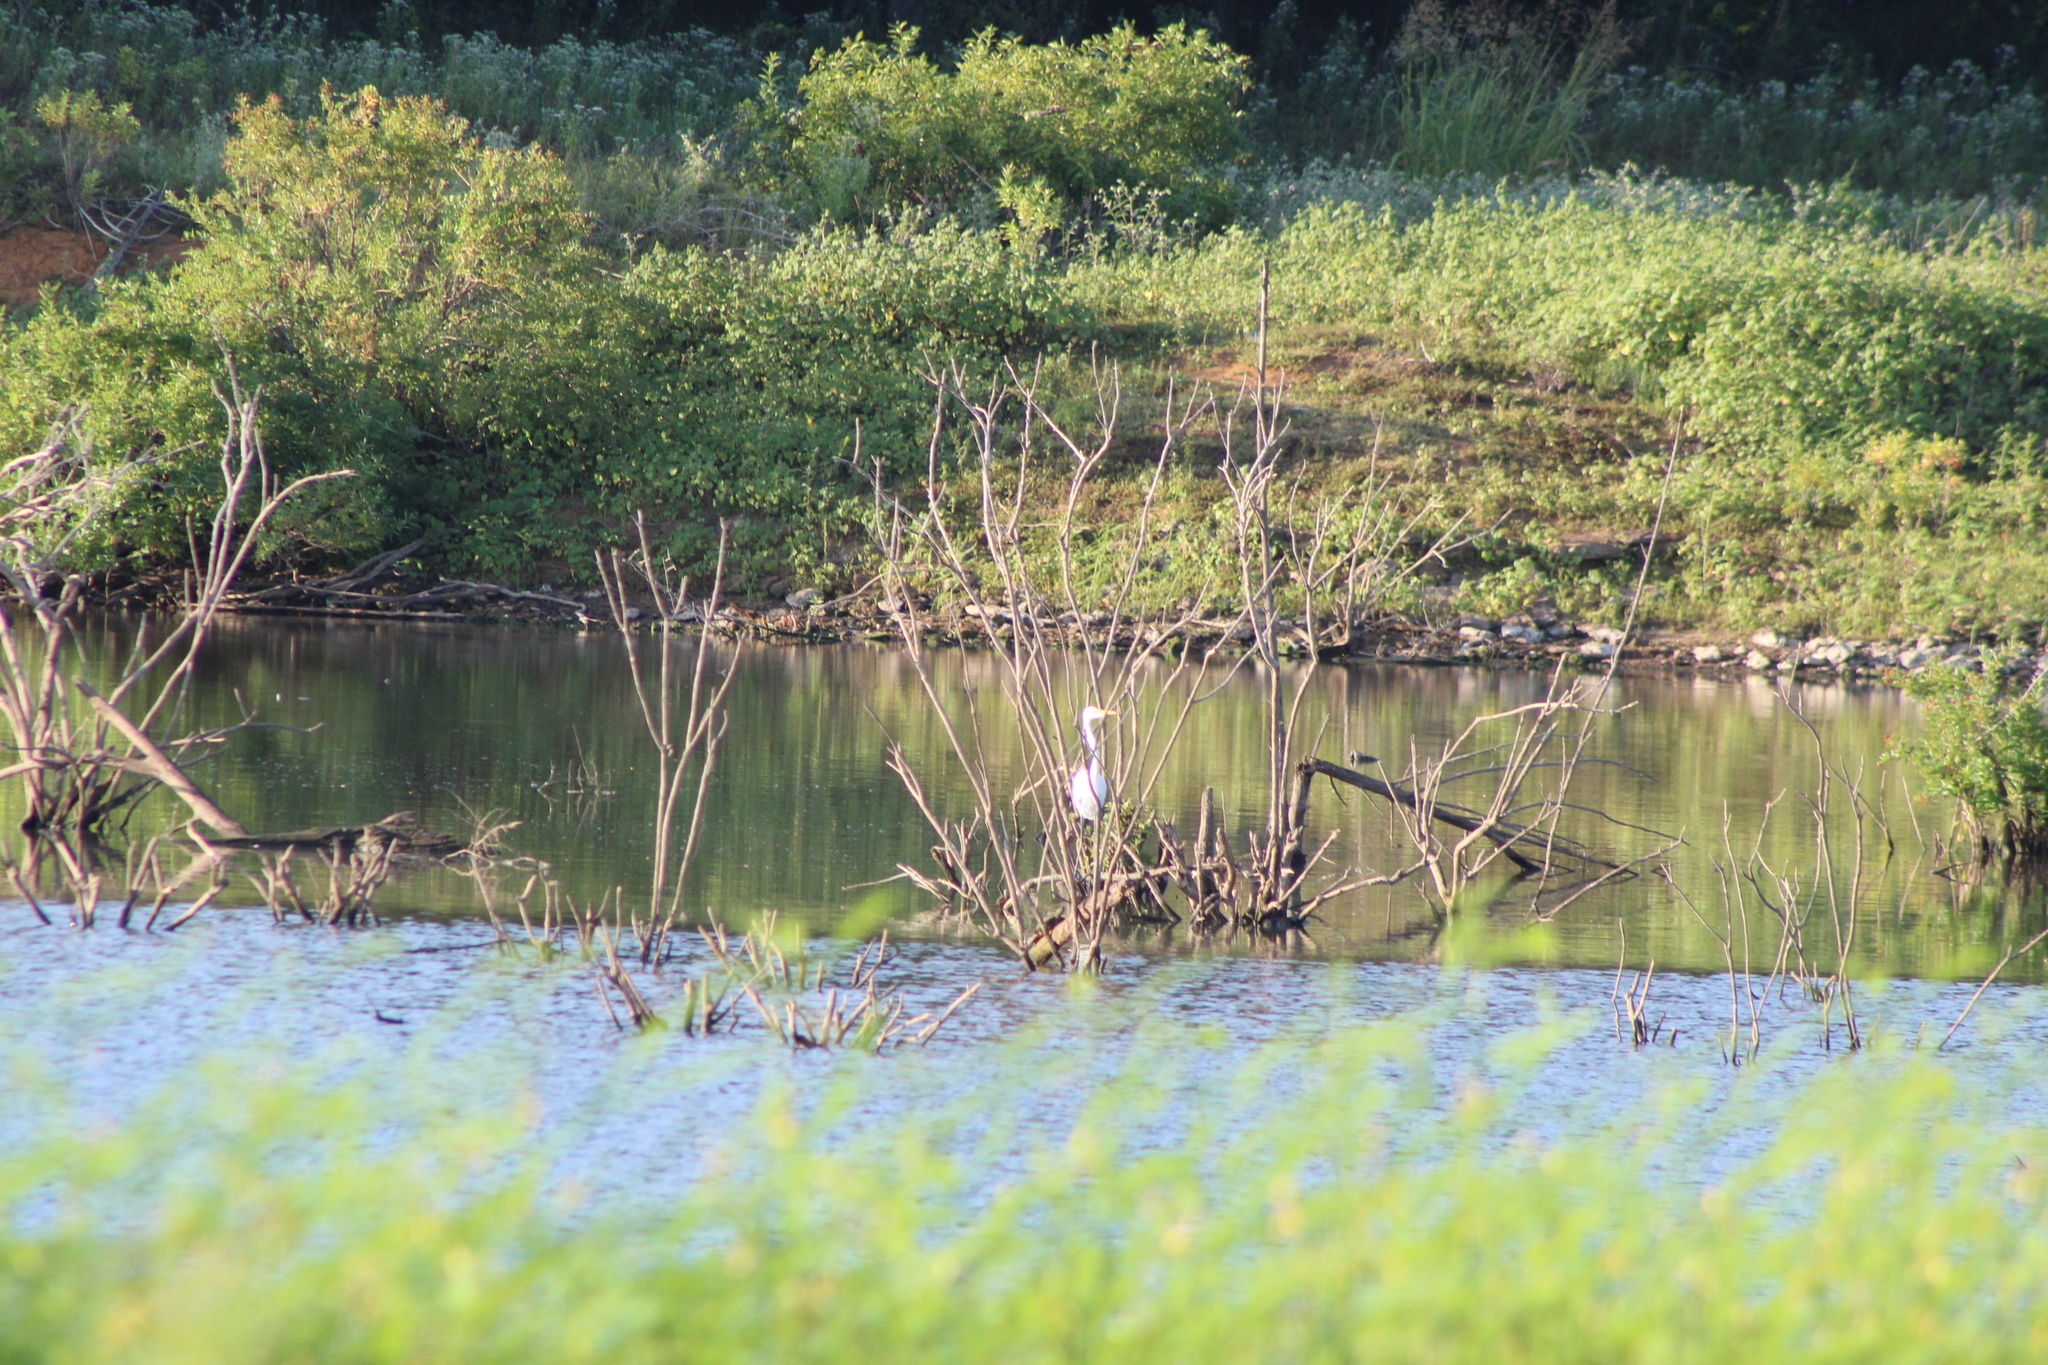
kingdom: Animalia
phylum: Chordata
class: Aves
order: Pelecaniformes
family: Ardeidae
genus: Ardea
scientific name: Ardea alba
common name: Great egret
